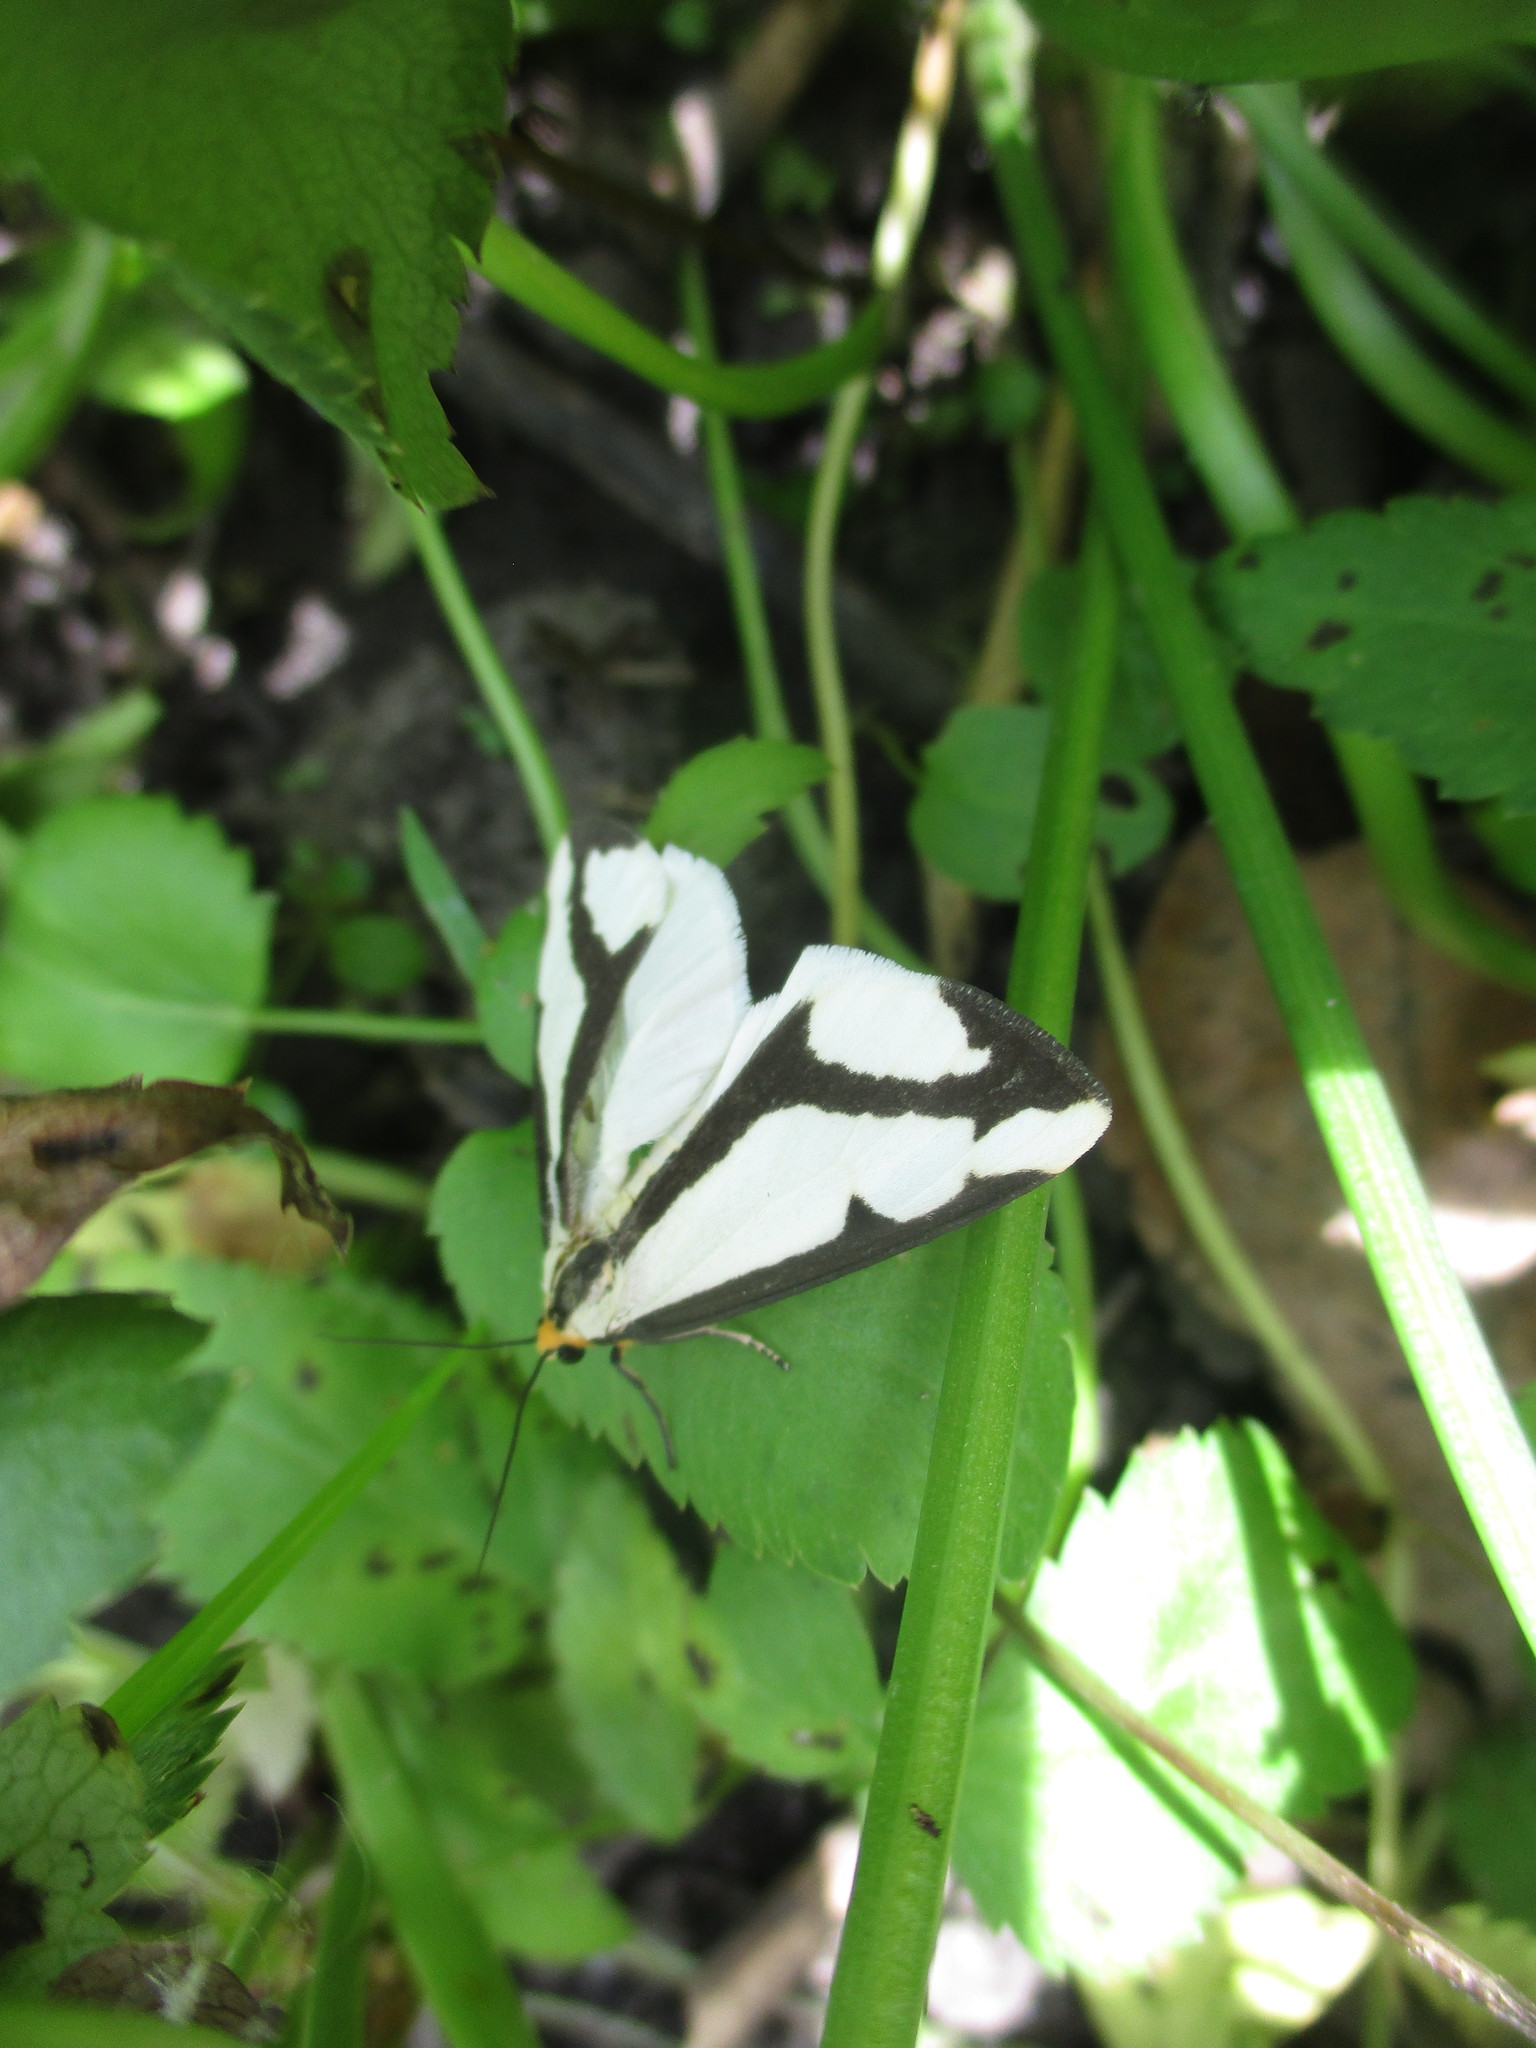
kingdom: Animalia
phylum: Arthropoda
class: Insecta
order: Lepidoptera
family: Erebidae
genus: Haploa
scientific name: Haploa lecontei
